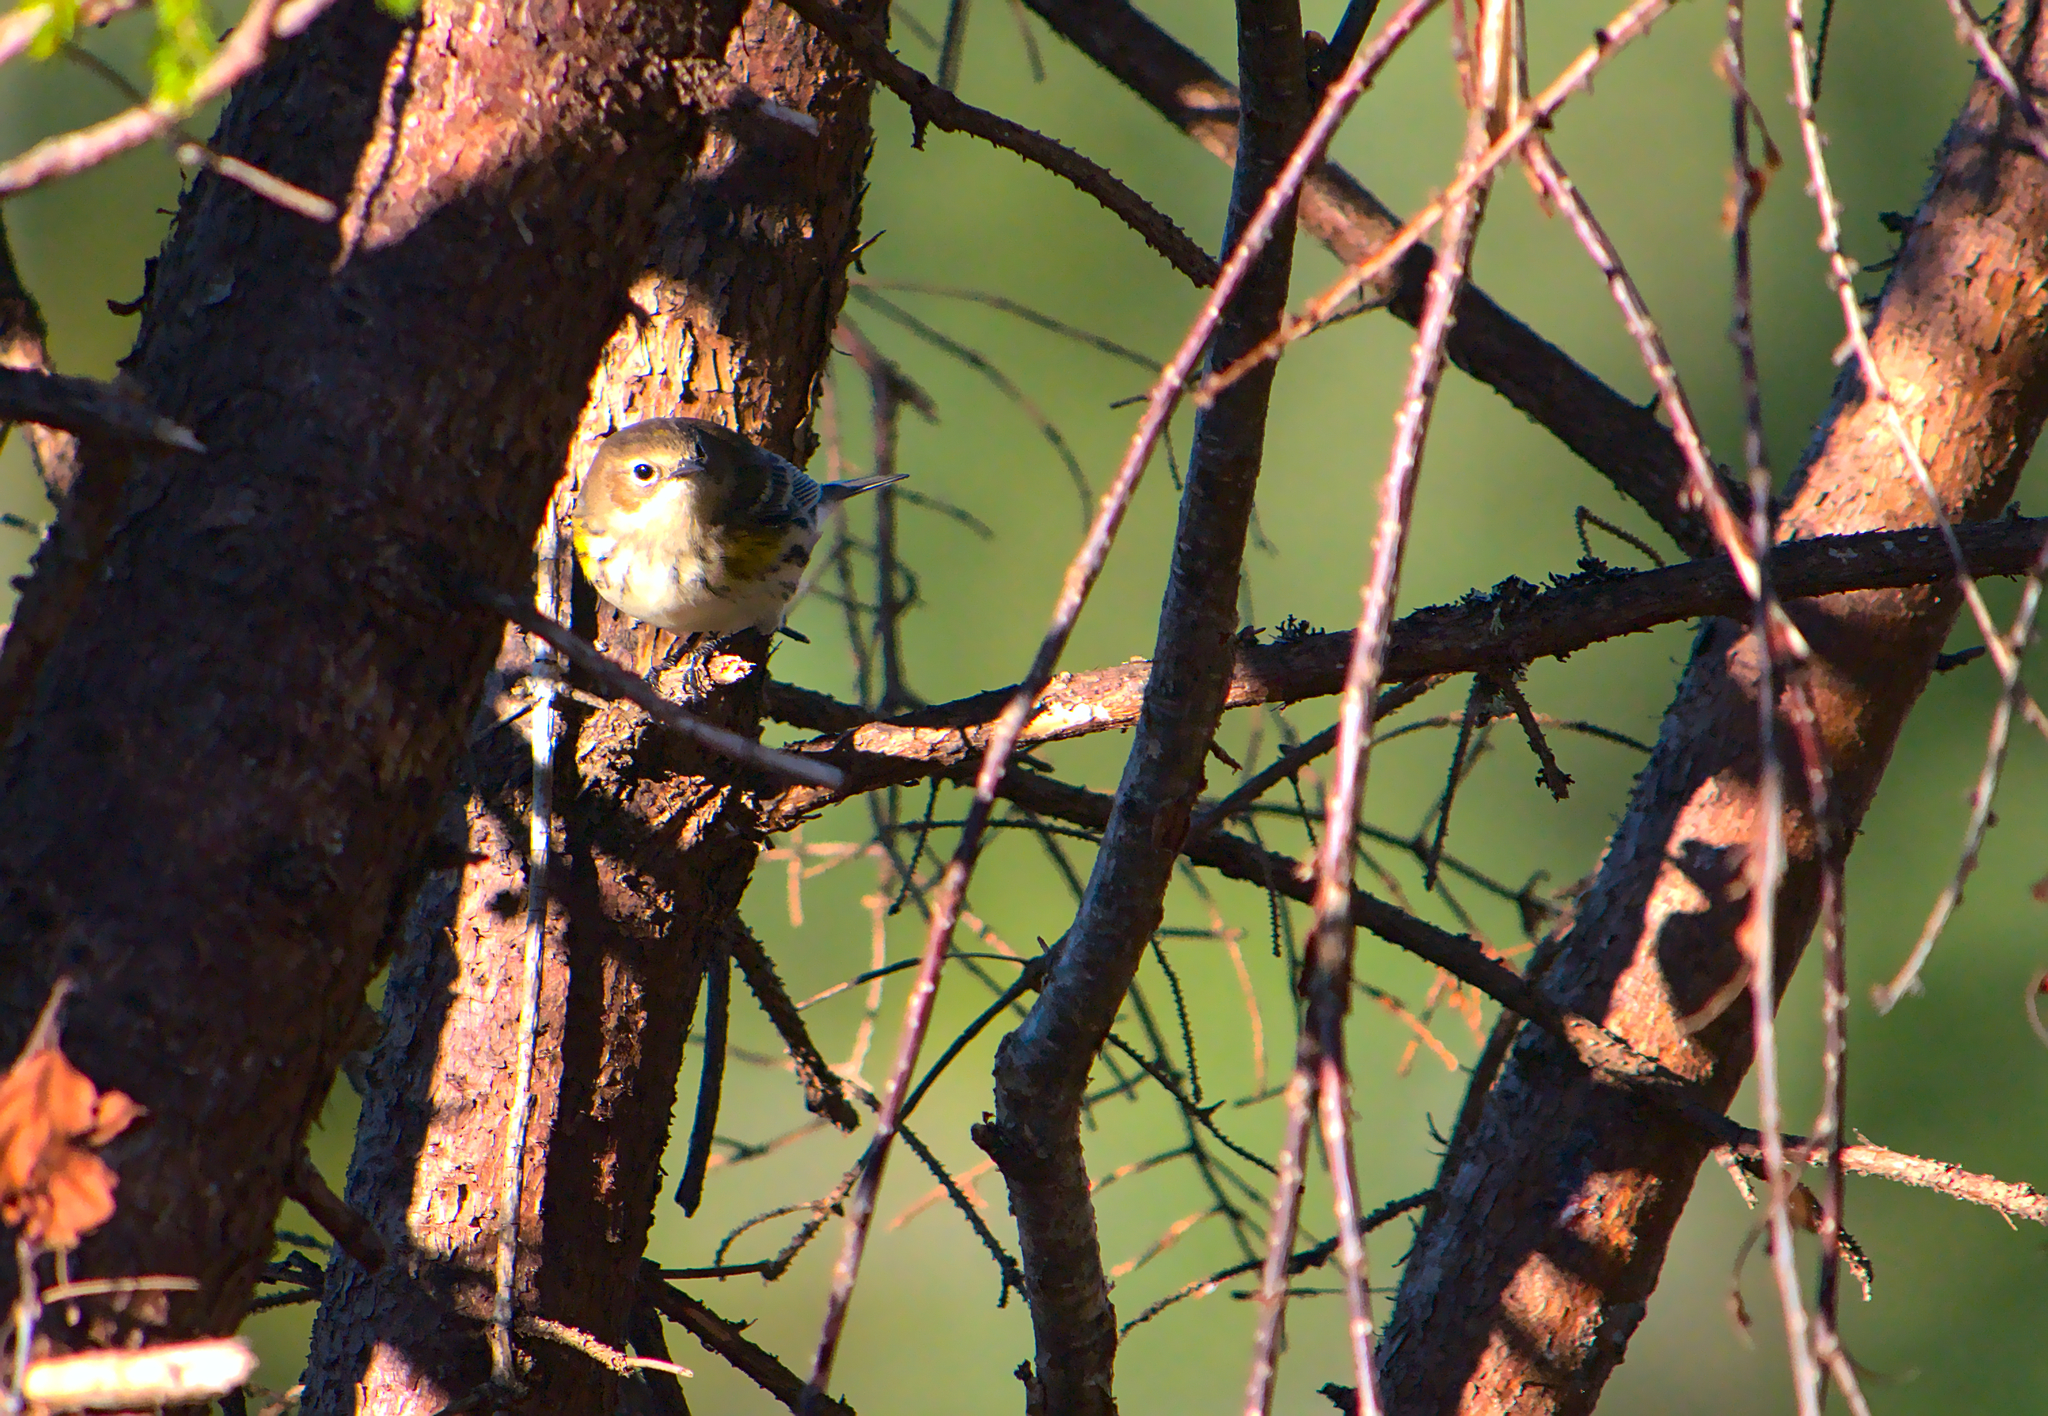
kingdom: Animalia
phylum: Chordata
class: Aves
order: Passeriformes
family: Parulidae
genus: Setophaga
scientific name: Setophaga coronata
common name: Myrtle warbler
